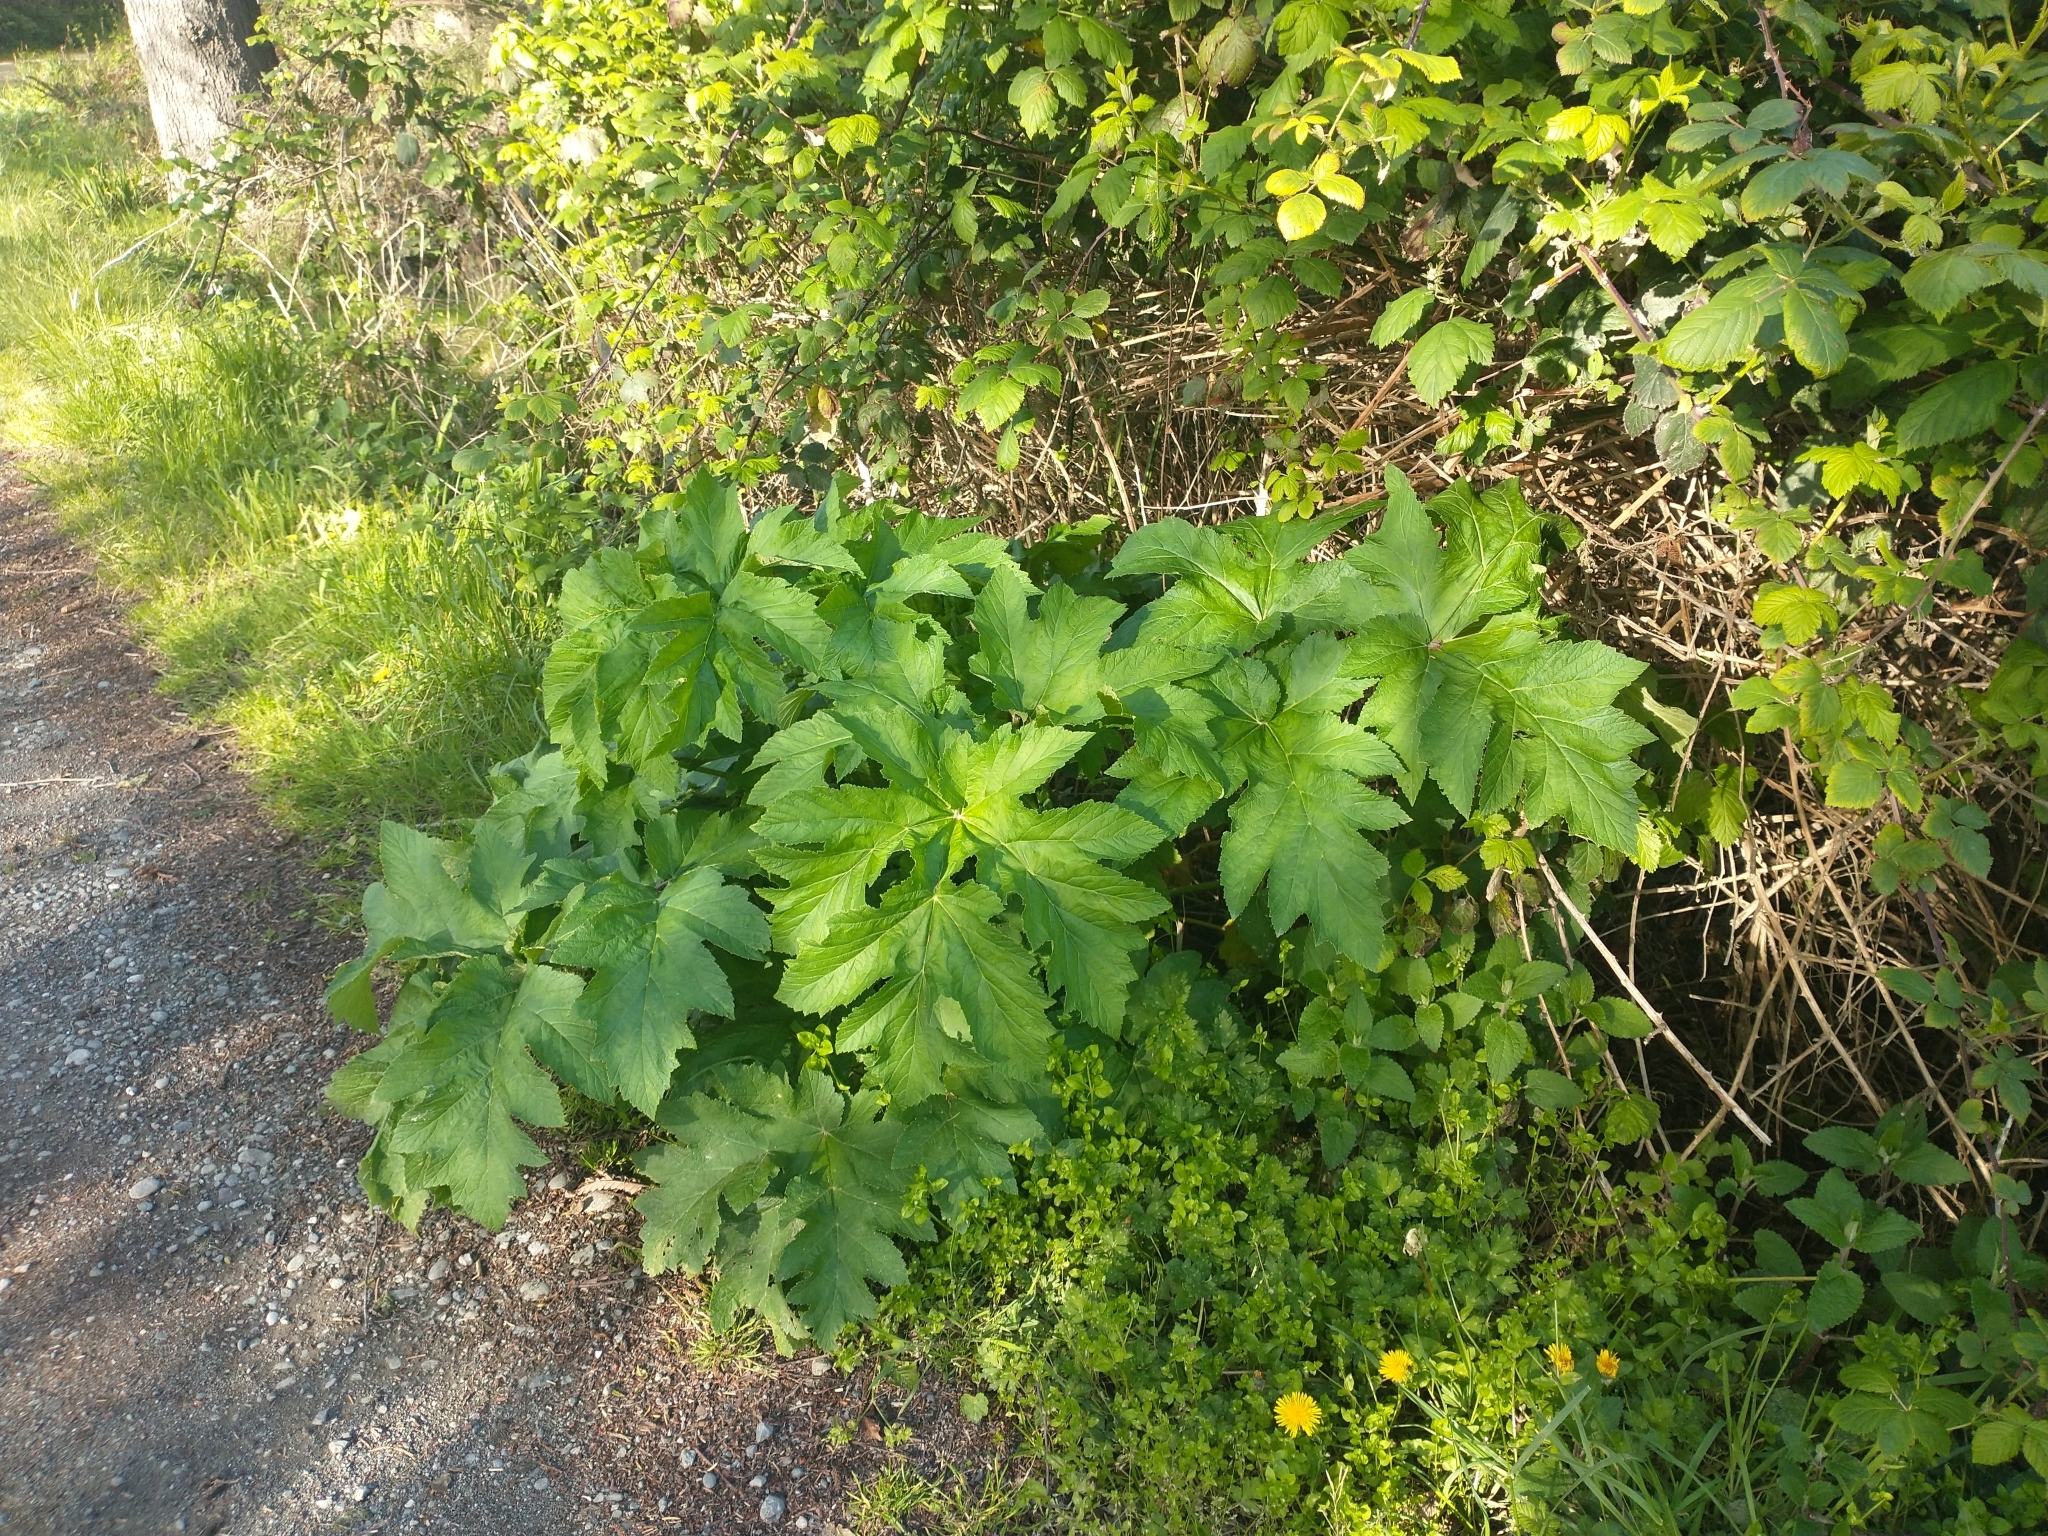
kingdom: Plantae
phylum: Tracheophyta
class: Magnoliopsida
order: Apiales
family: Apiaceae
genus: Heracleum
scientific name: Heracleum maximum
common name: American cow parsnip
